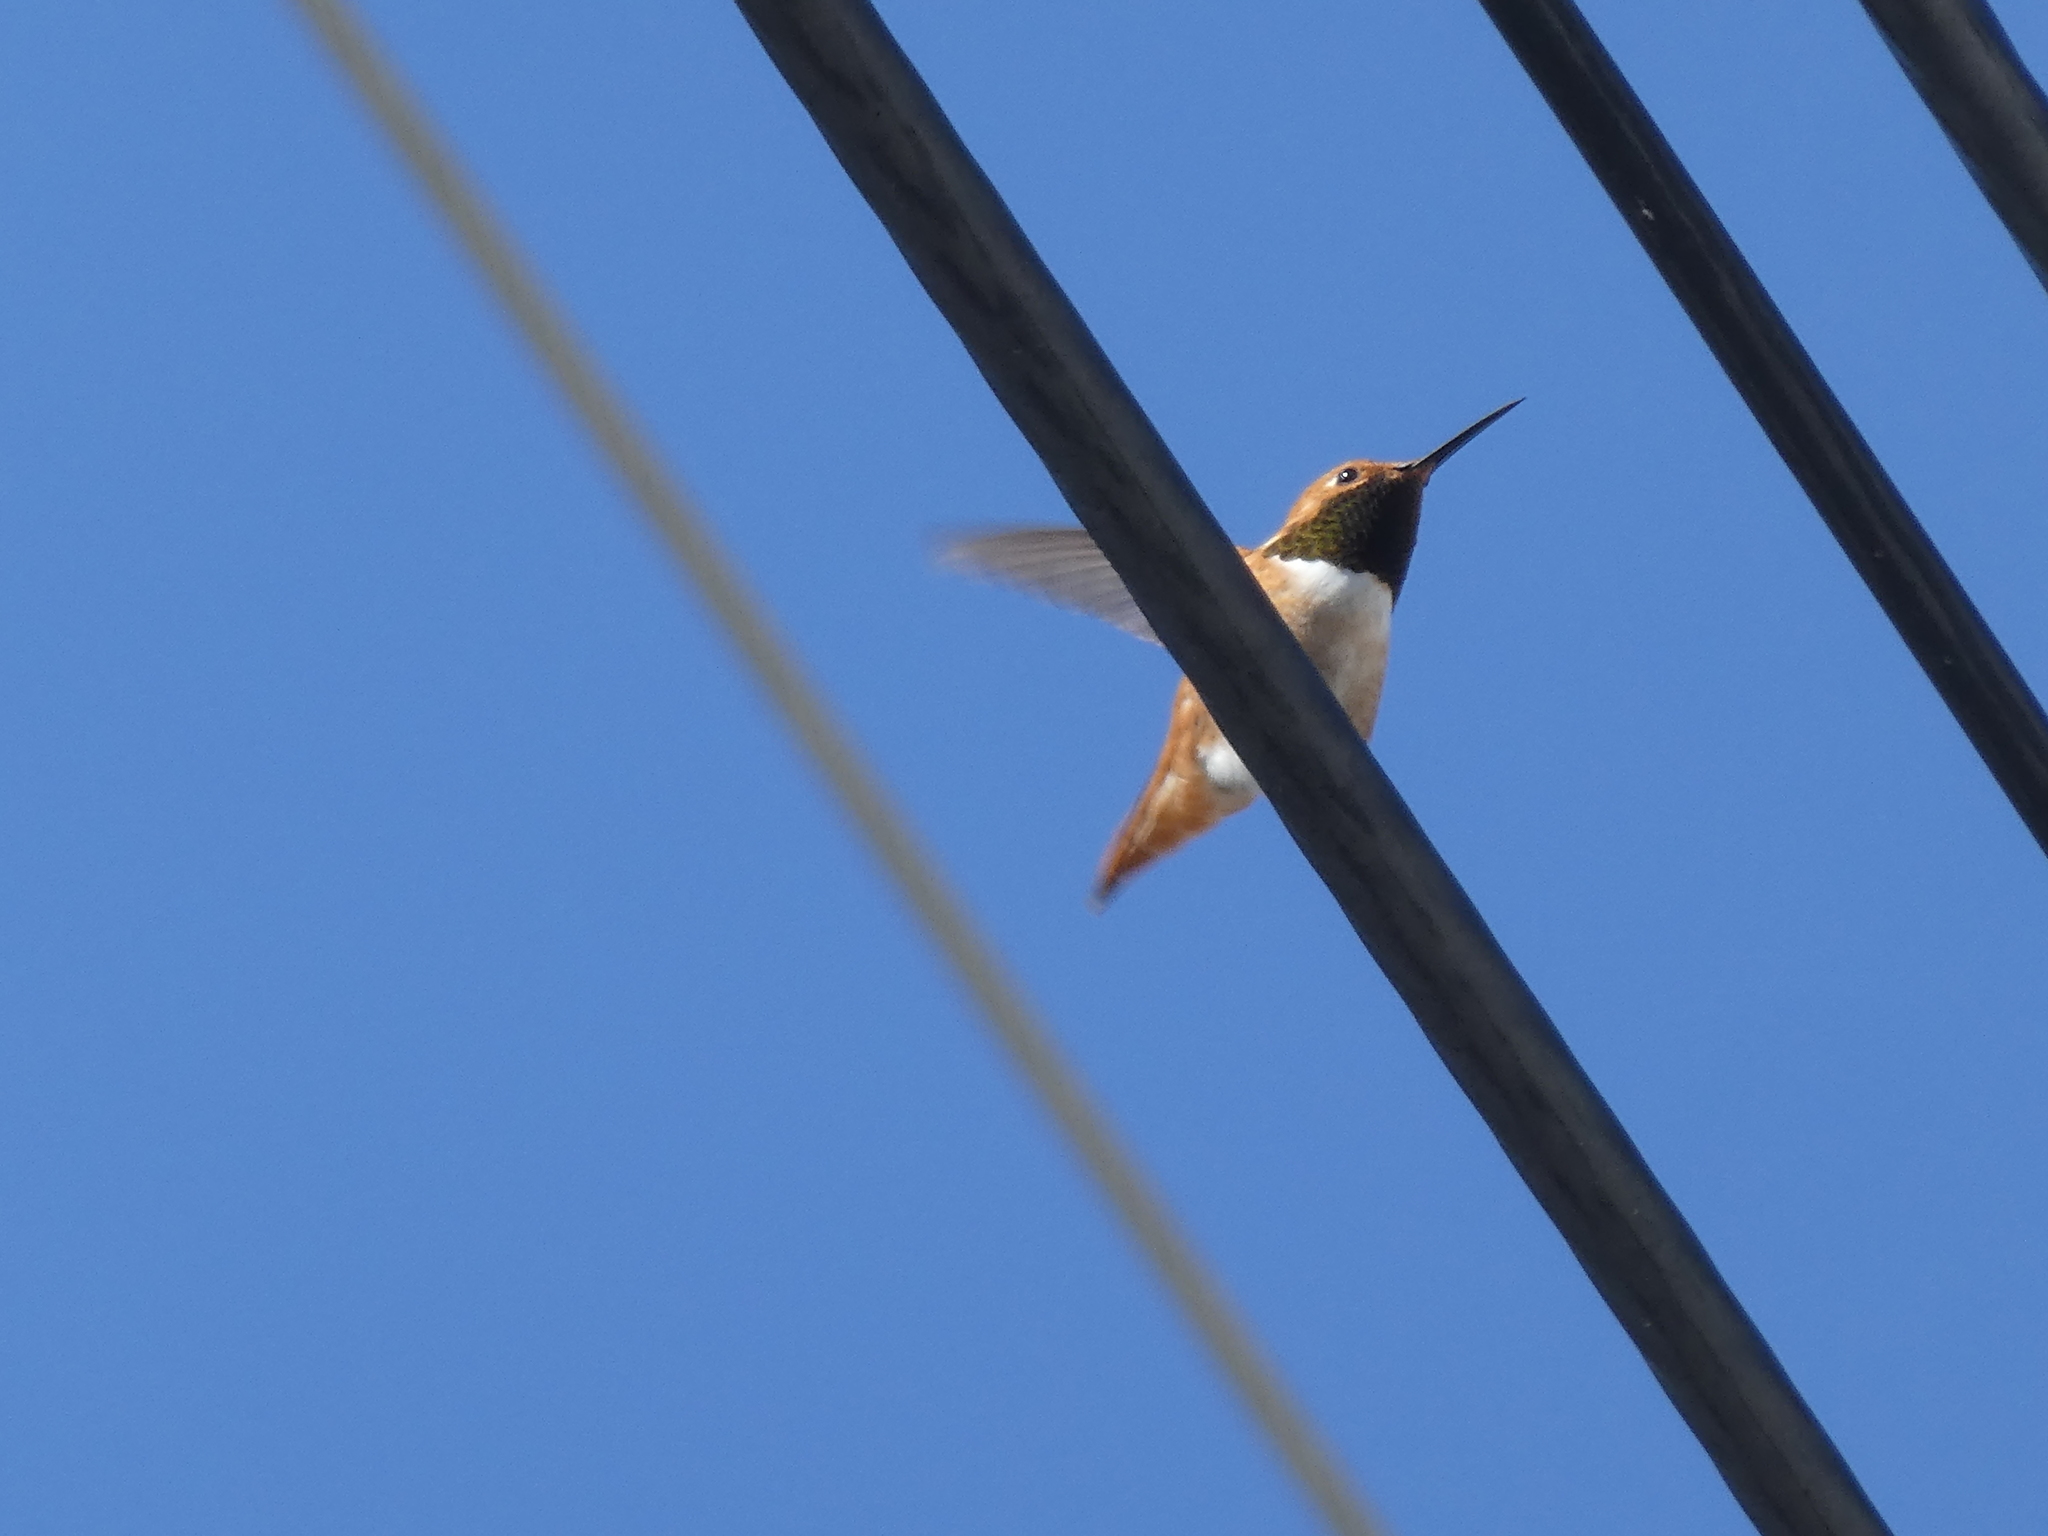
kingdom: Animalia
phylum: Chordata
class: Aves
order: Apodiformes
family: Trochilidae
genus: Selasphorus
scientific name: Selasphorus
